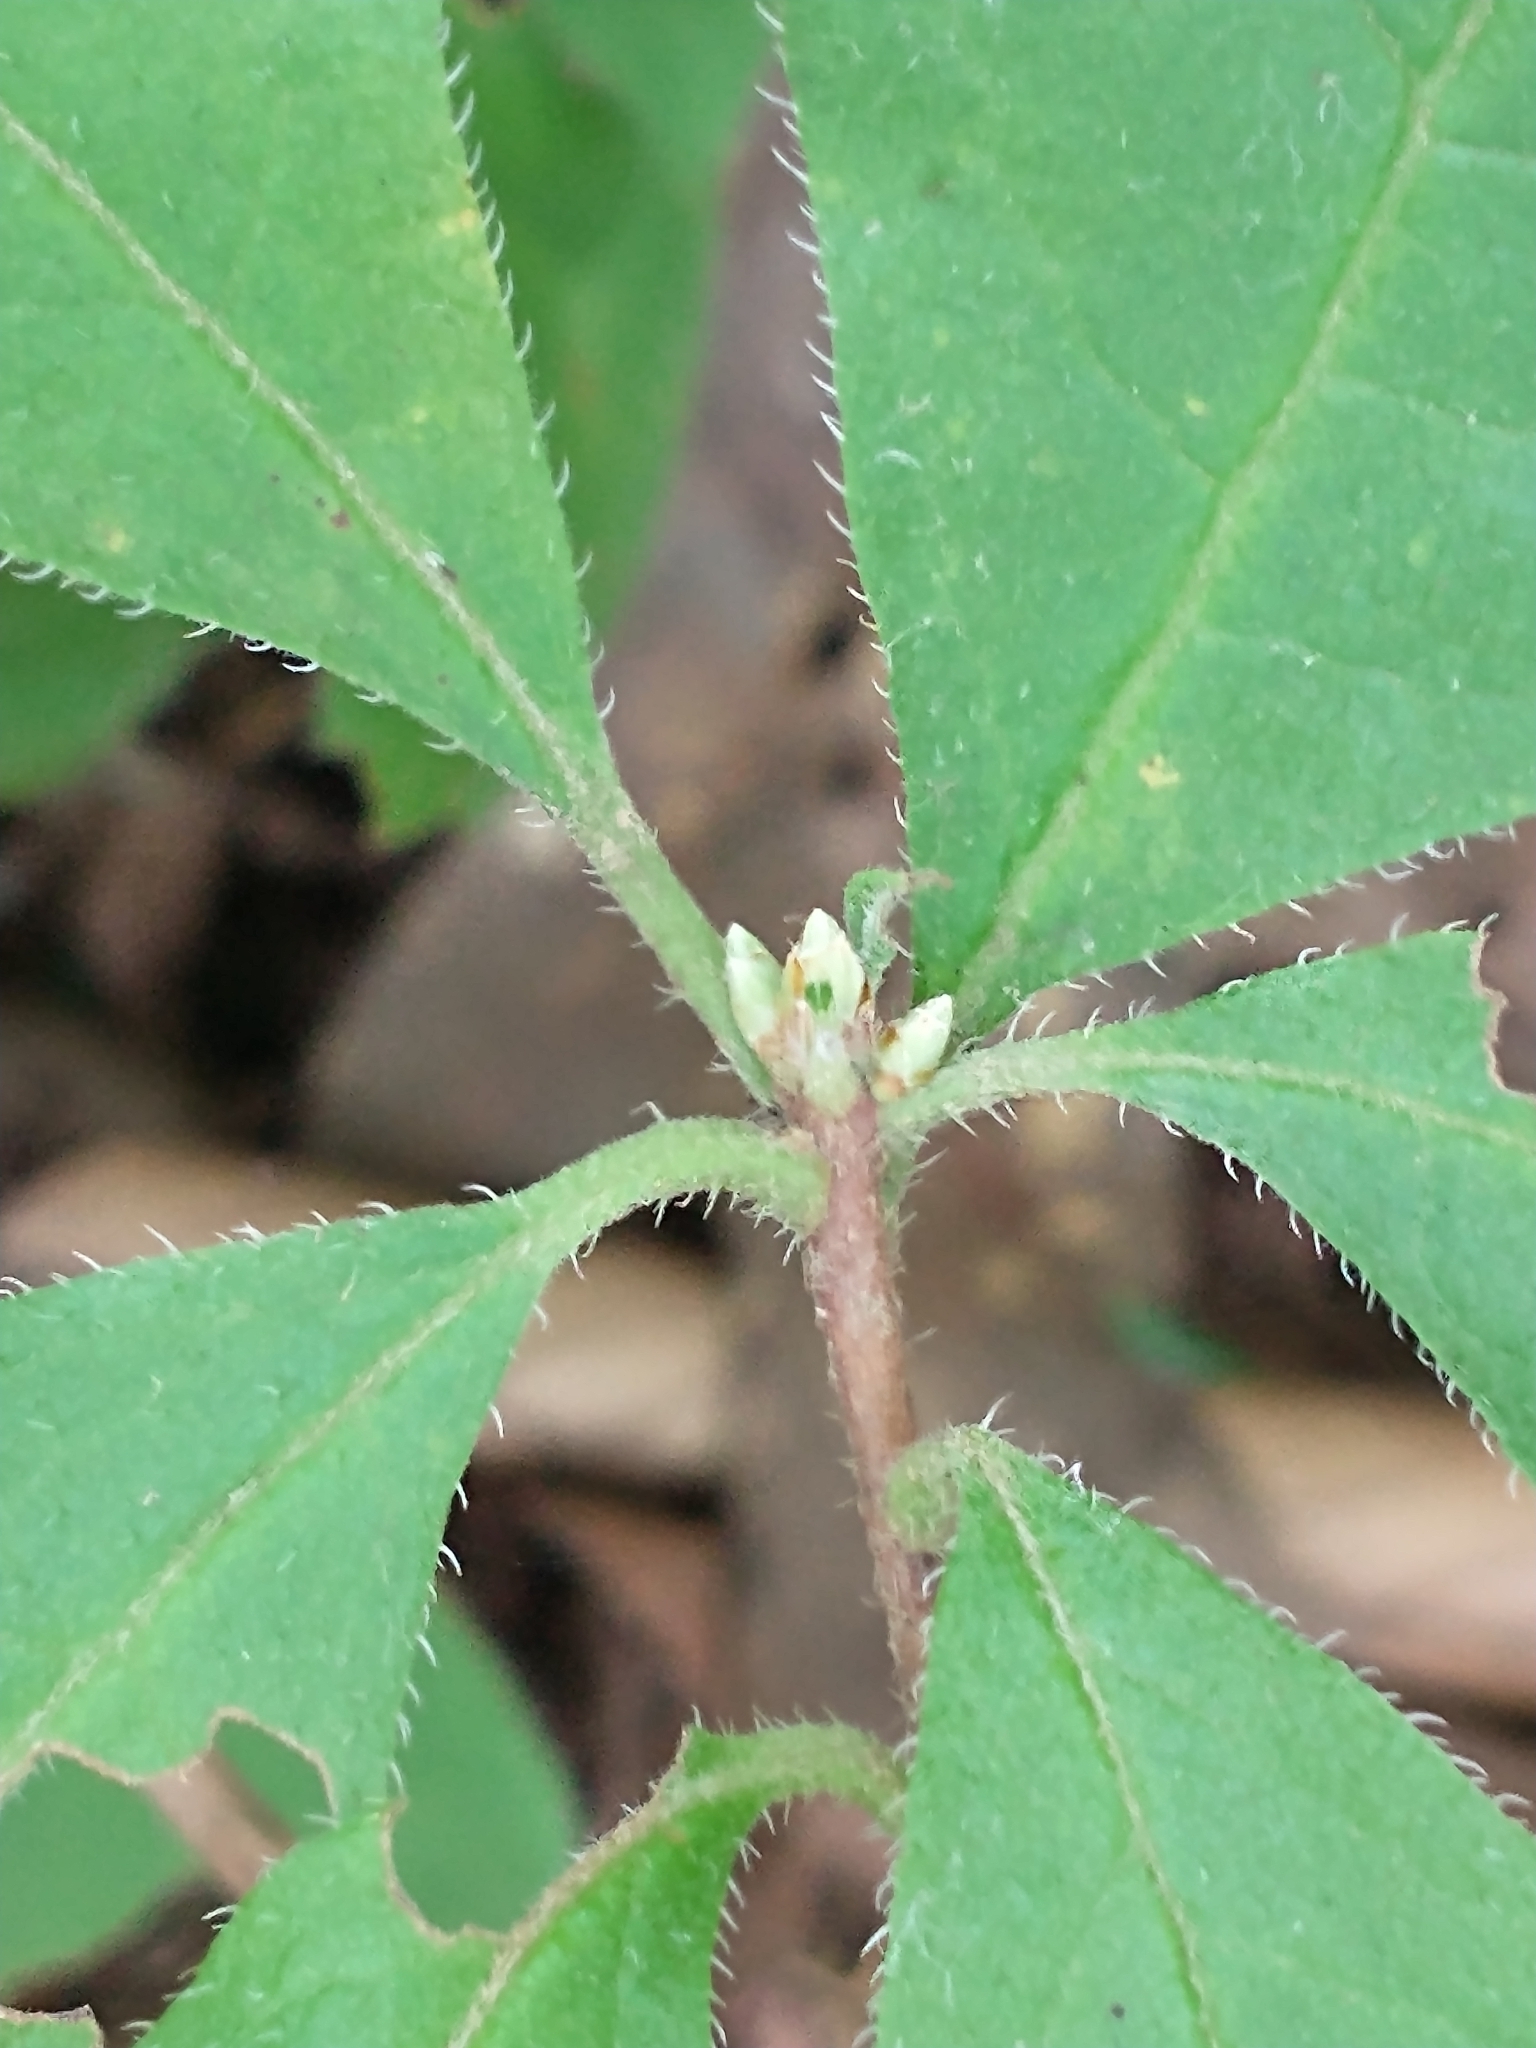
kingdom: Plantae
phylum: Tracheophyta
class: Magnoliopsida
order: Ericales
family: Ericaceae
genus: Rhododendron
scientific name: Rhododendron roseum
